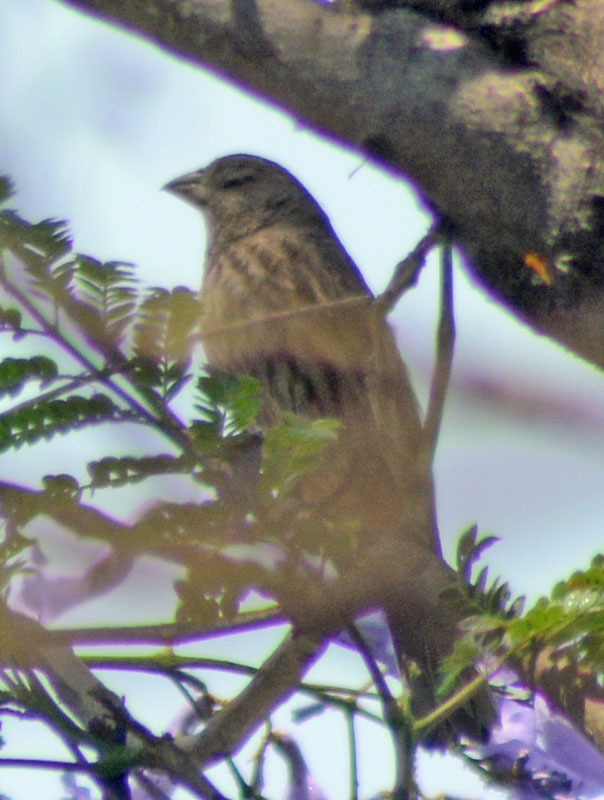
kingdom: Animalia
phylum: Chordata
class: Aves
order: Passeriformes
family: Fringillidae
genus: Haemorhous
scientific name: Haemorhous mexicanus
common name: House finch
